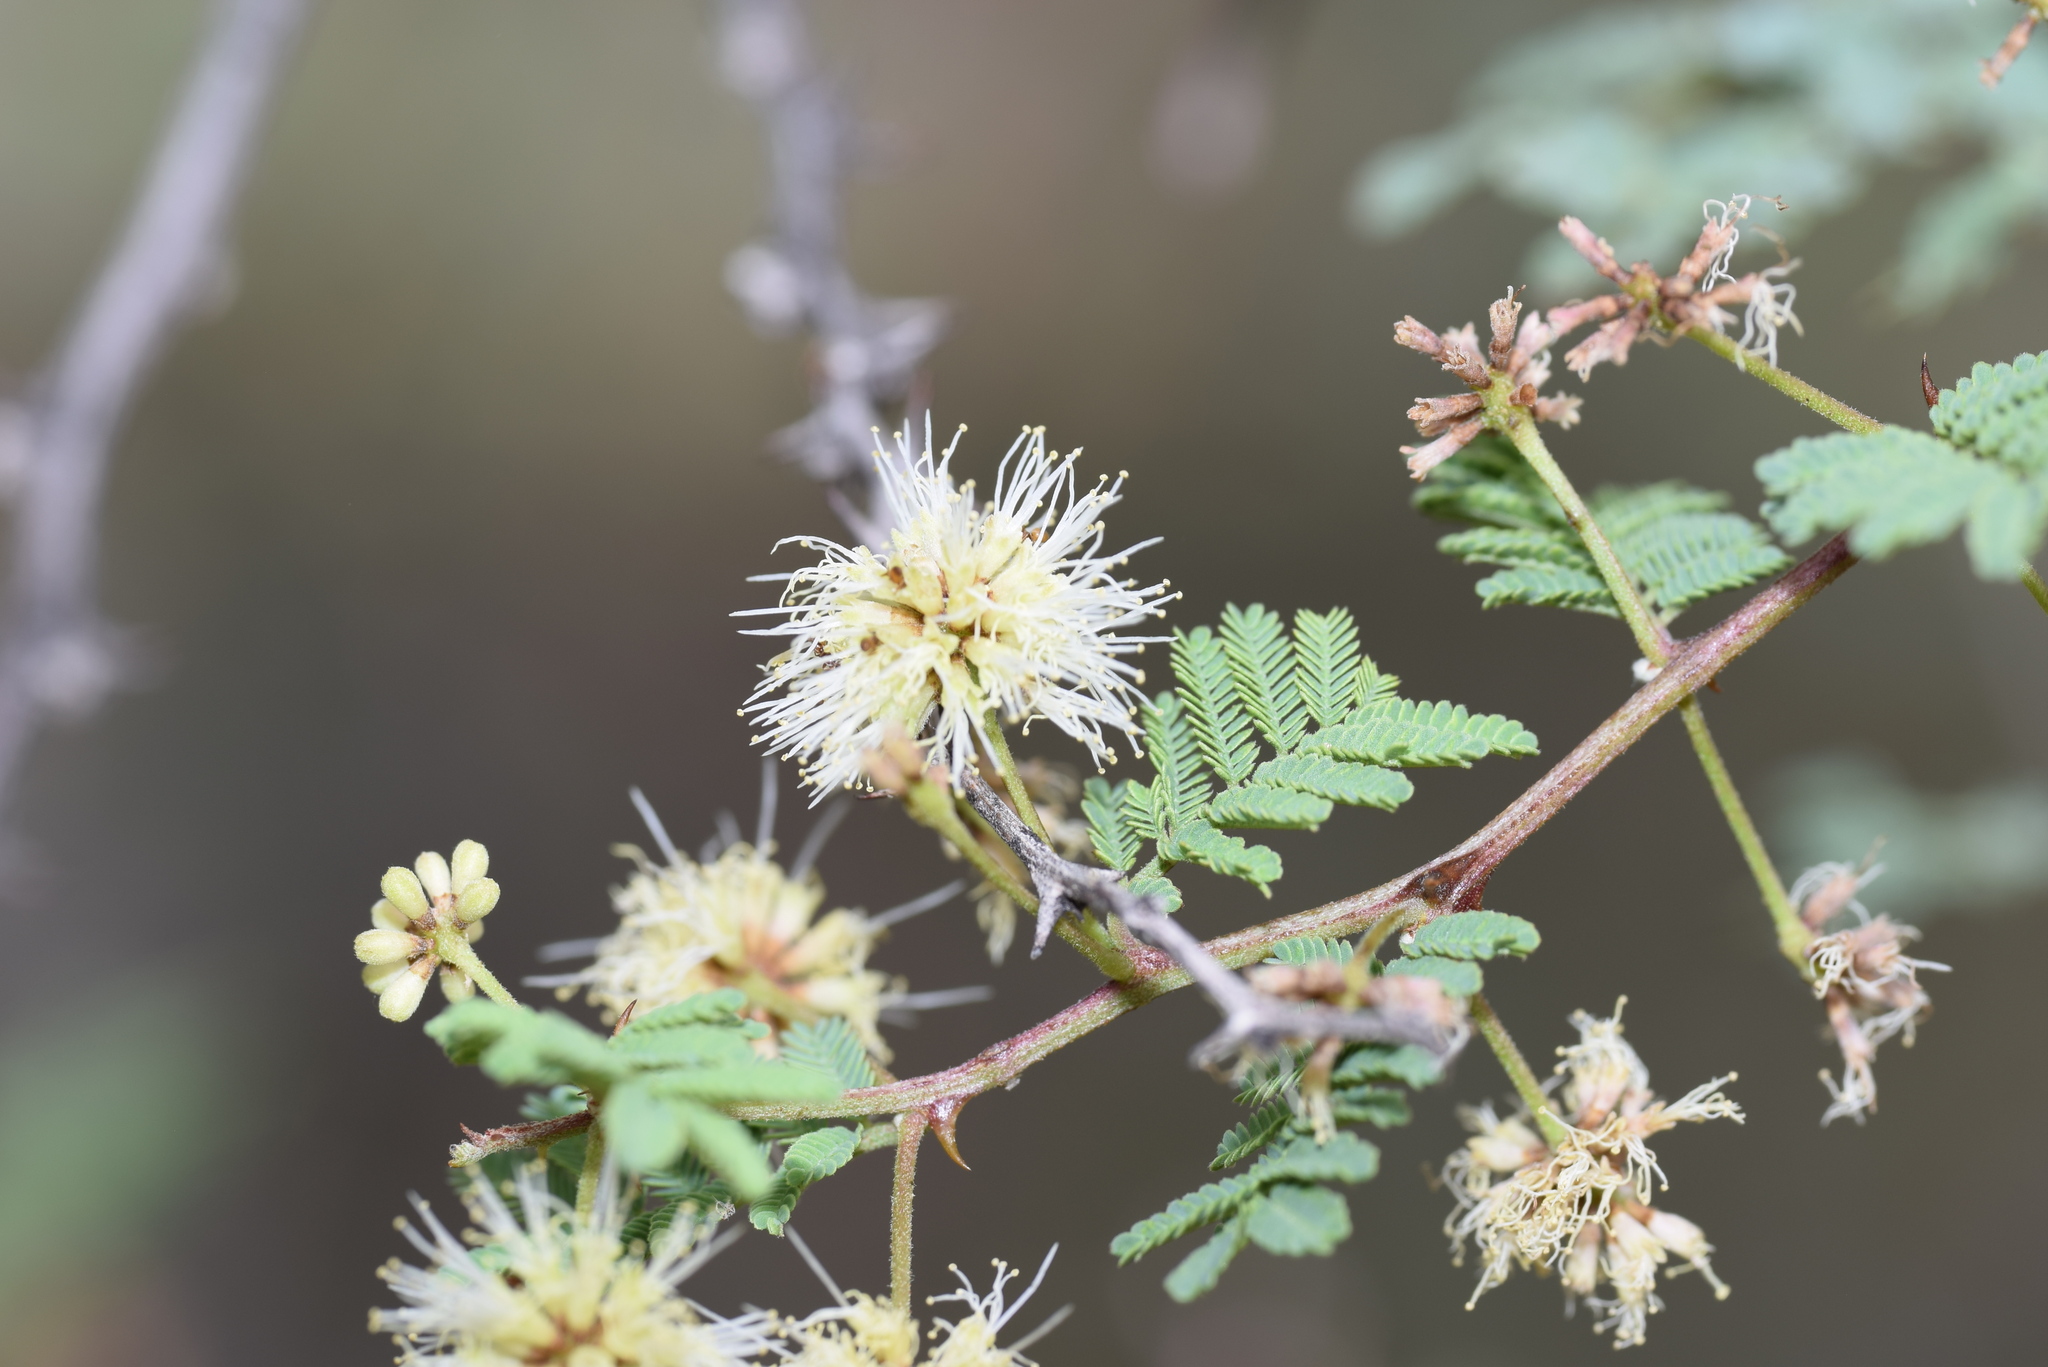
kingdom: Plantae
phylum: Tracheophyta
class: Magnoliopsida
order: Fabales
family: Fabaceae
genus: Mimosa
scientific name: Mimosa aculeaticarpa
